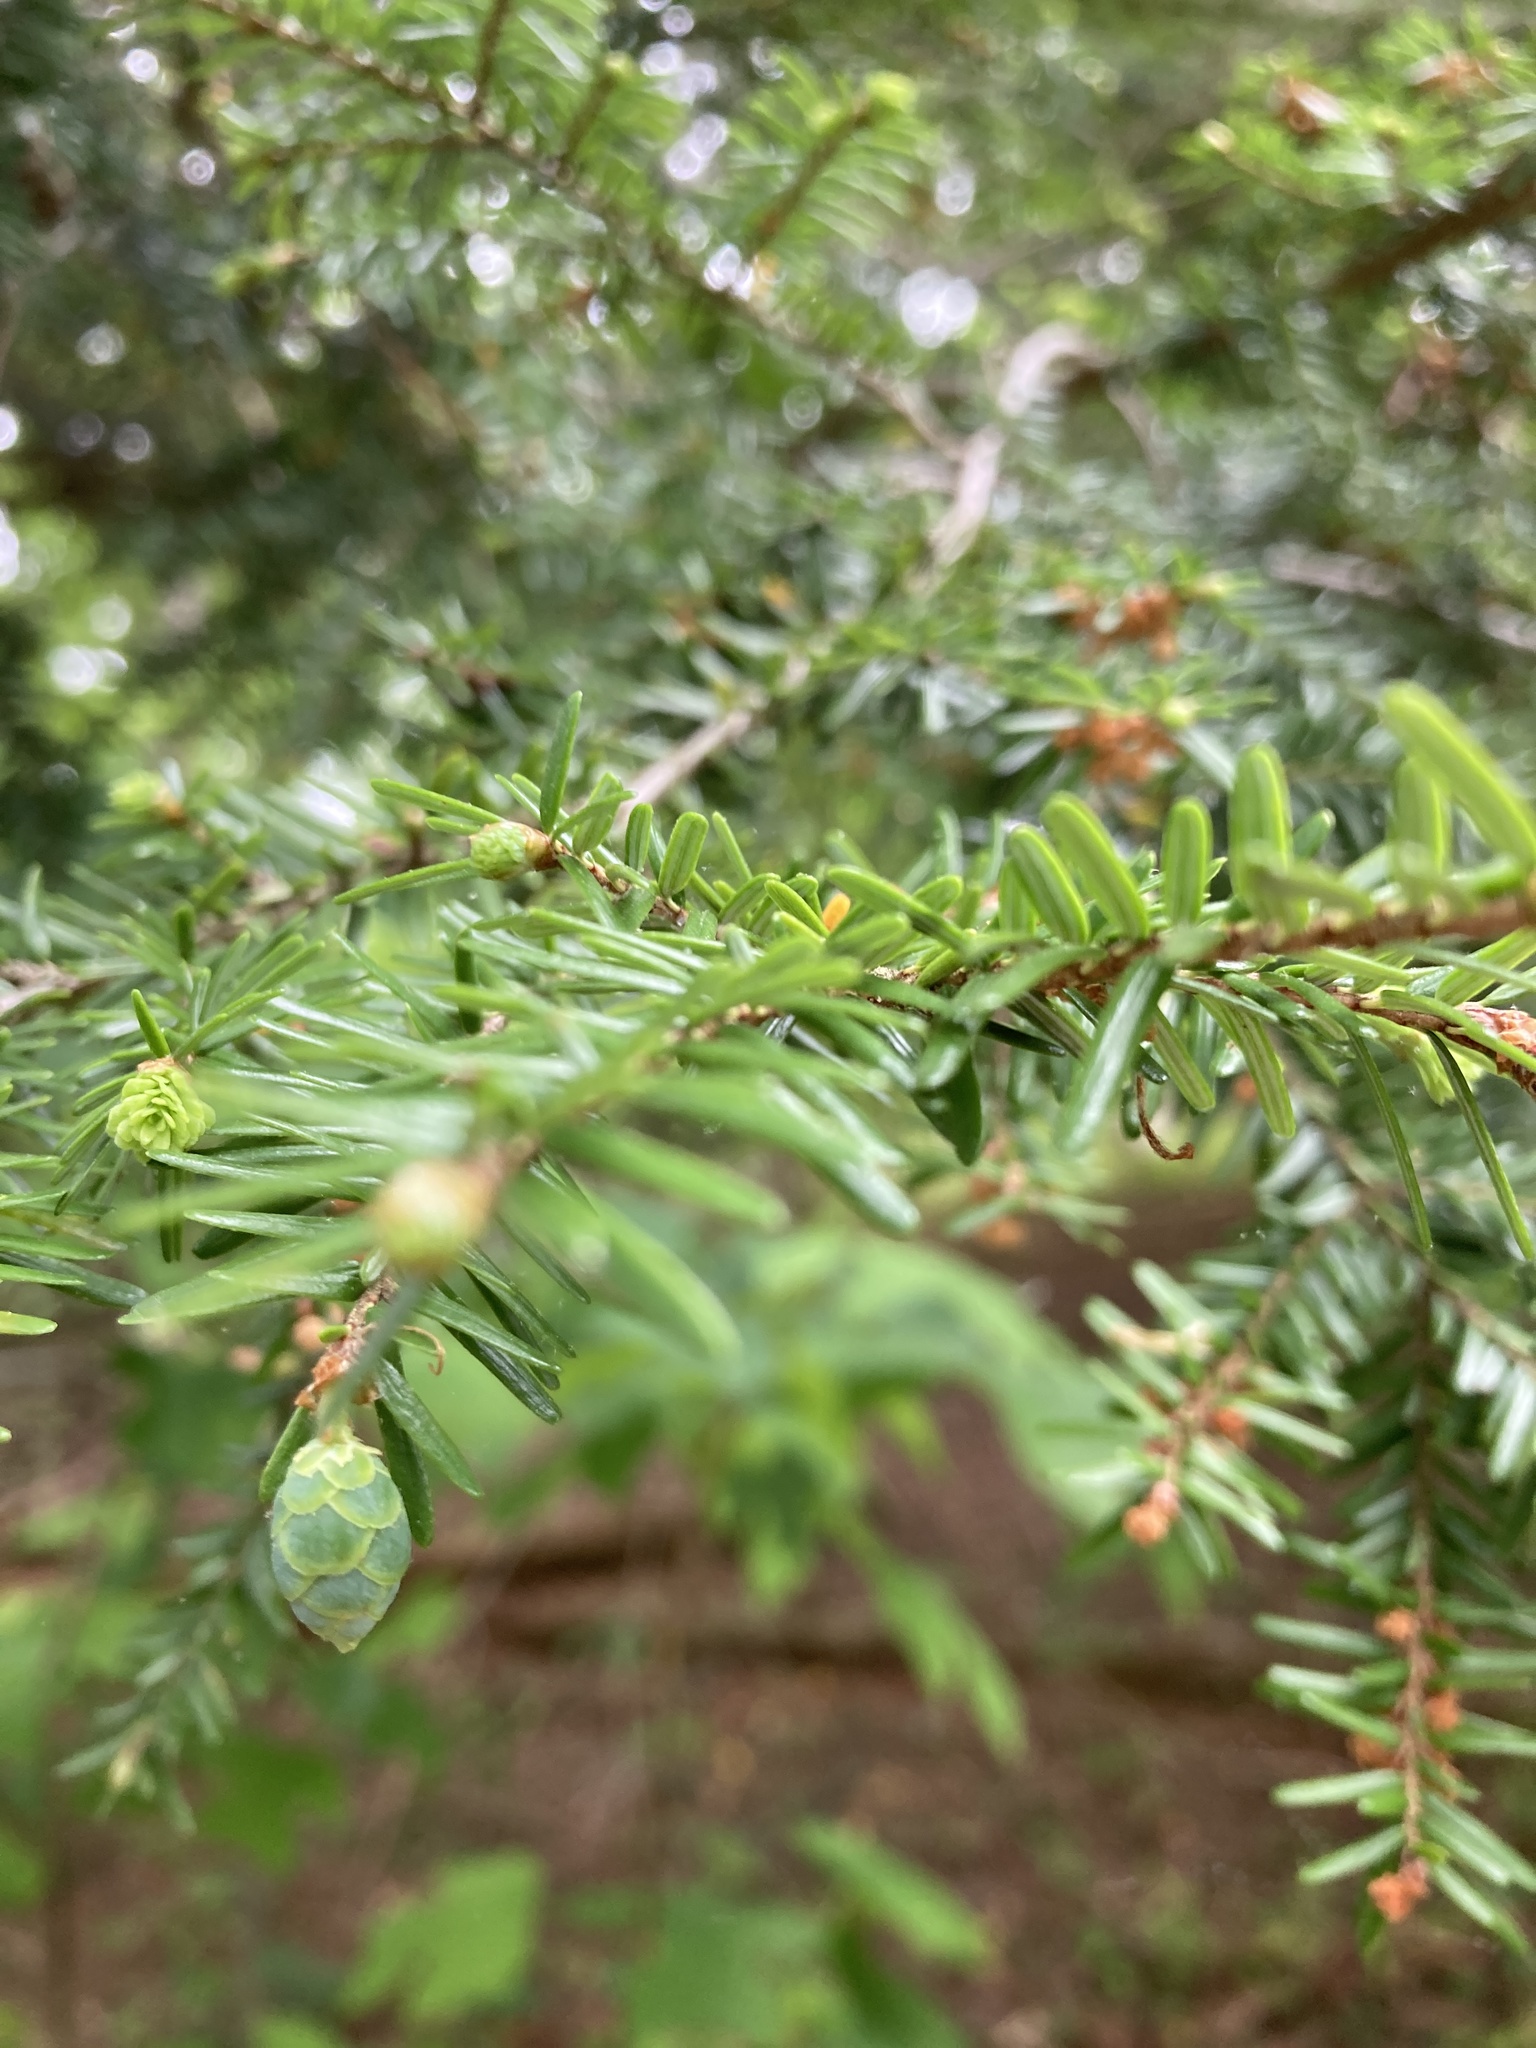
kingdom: Plantae
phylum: Tracheophyta
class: Pinopsida
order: Pinales
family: Pinaceae
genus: Tsuga
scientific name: Tsuga canadensis
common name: Eastern hemlock
